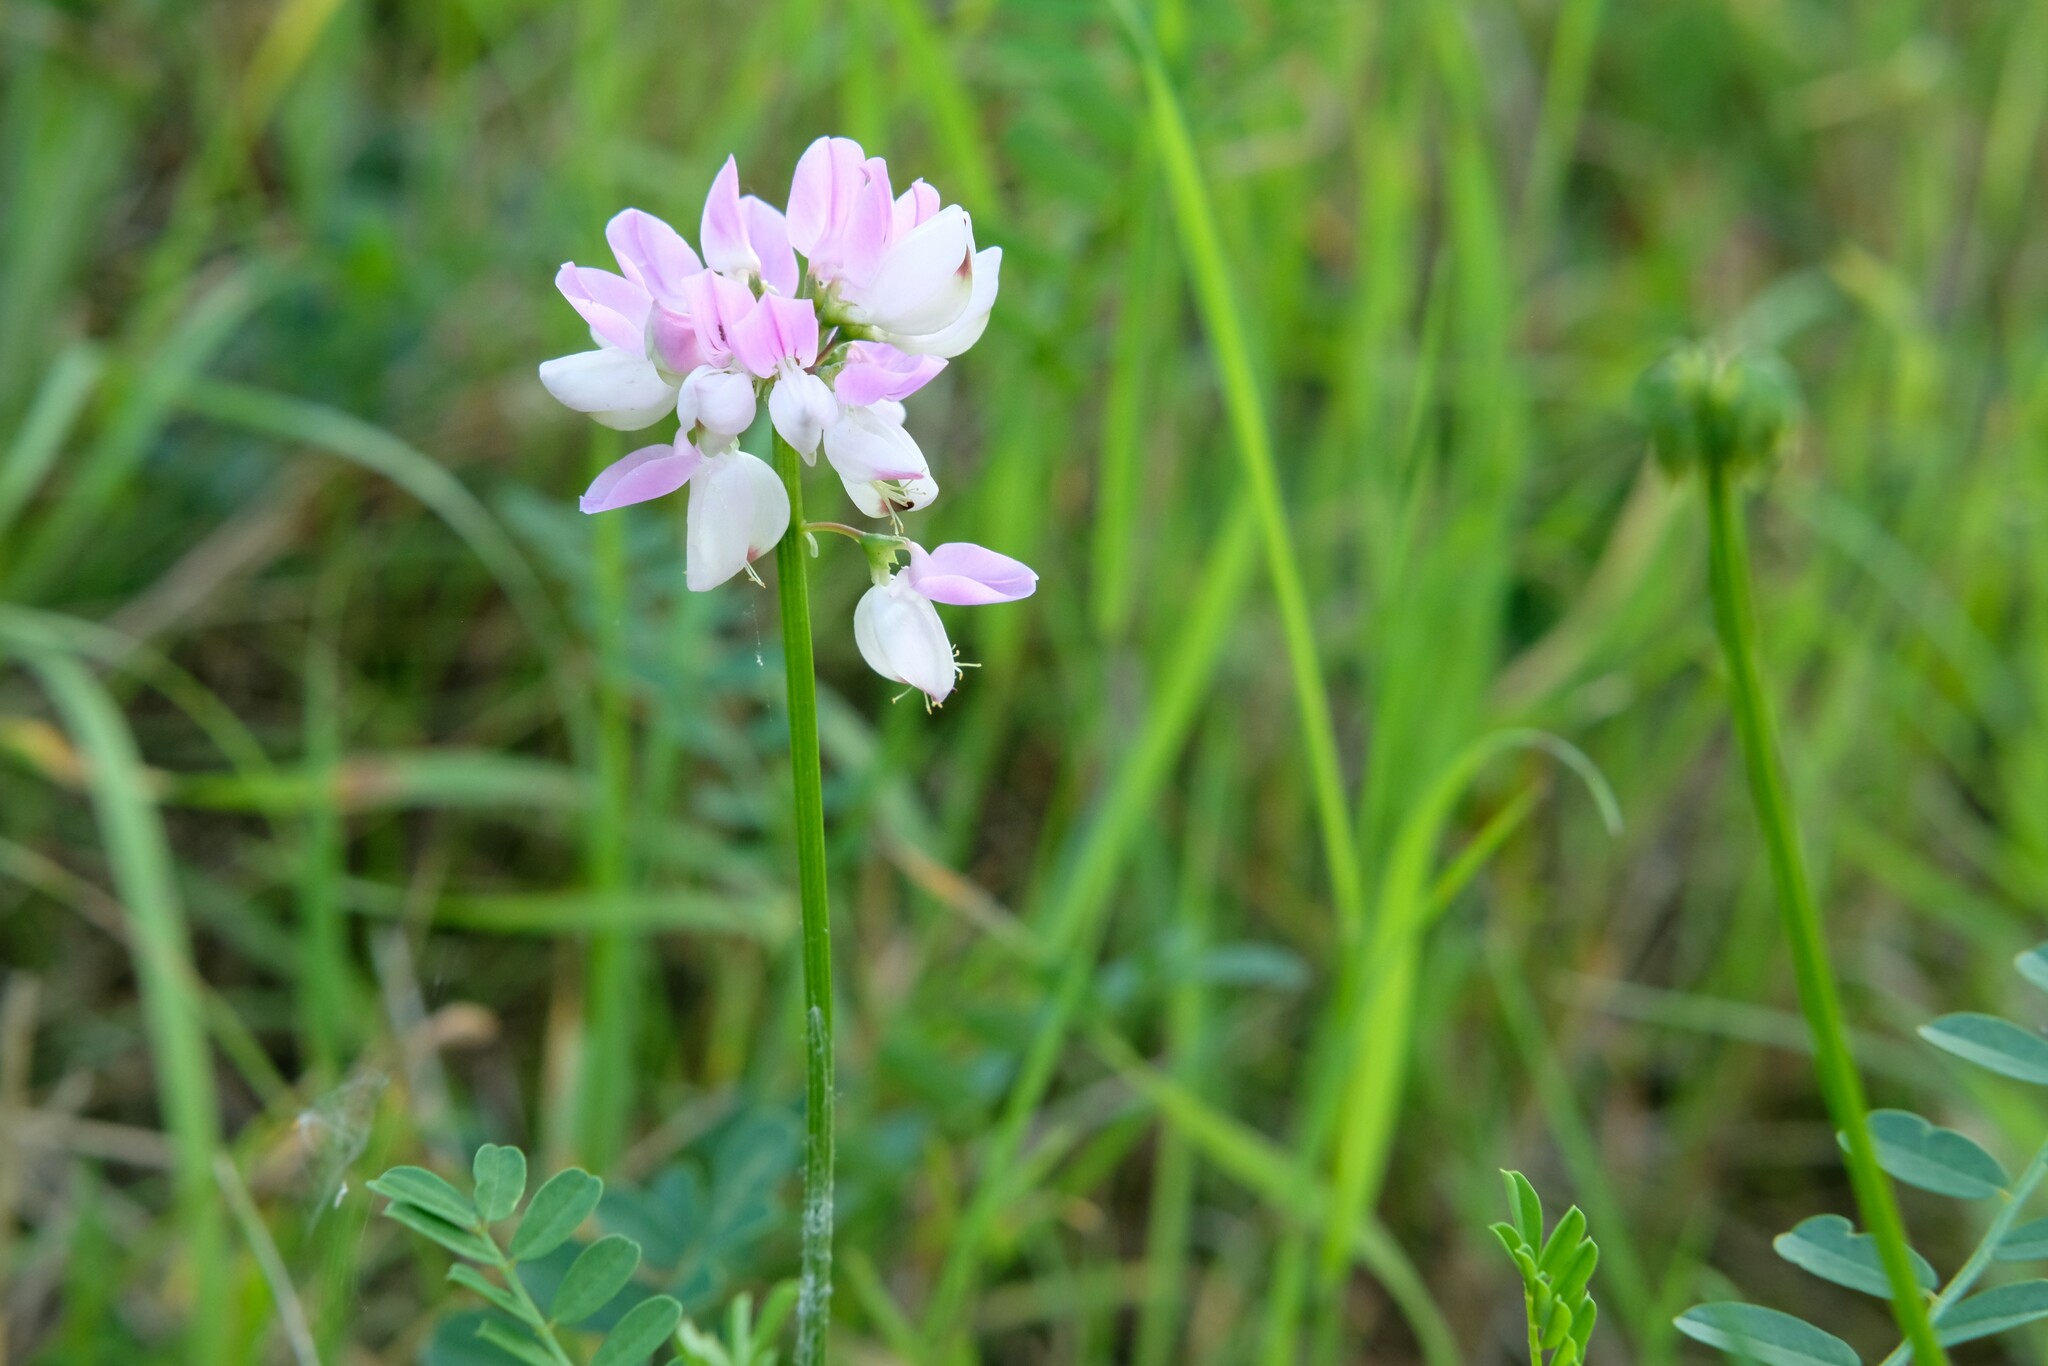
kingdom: Plantae
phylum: Tracheophyta
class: Magnoliopsida
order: Fabales
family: Fabaceae
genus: Coronilla
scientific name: Coronilla varia
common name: Crownvetch
